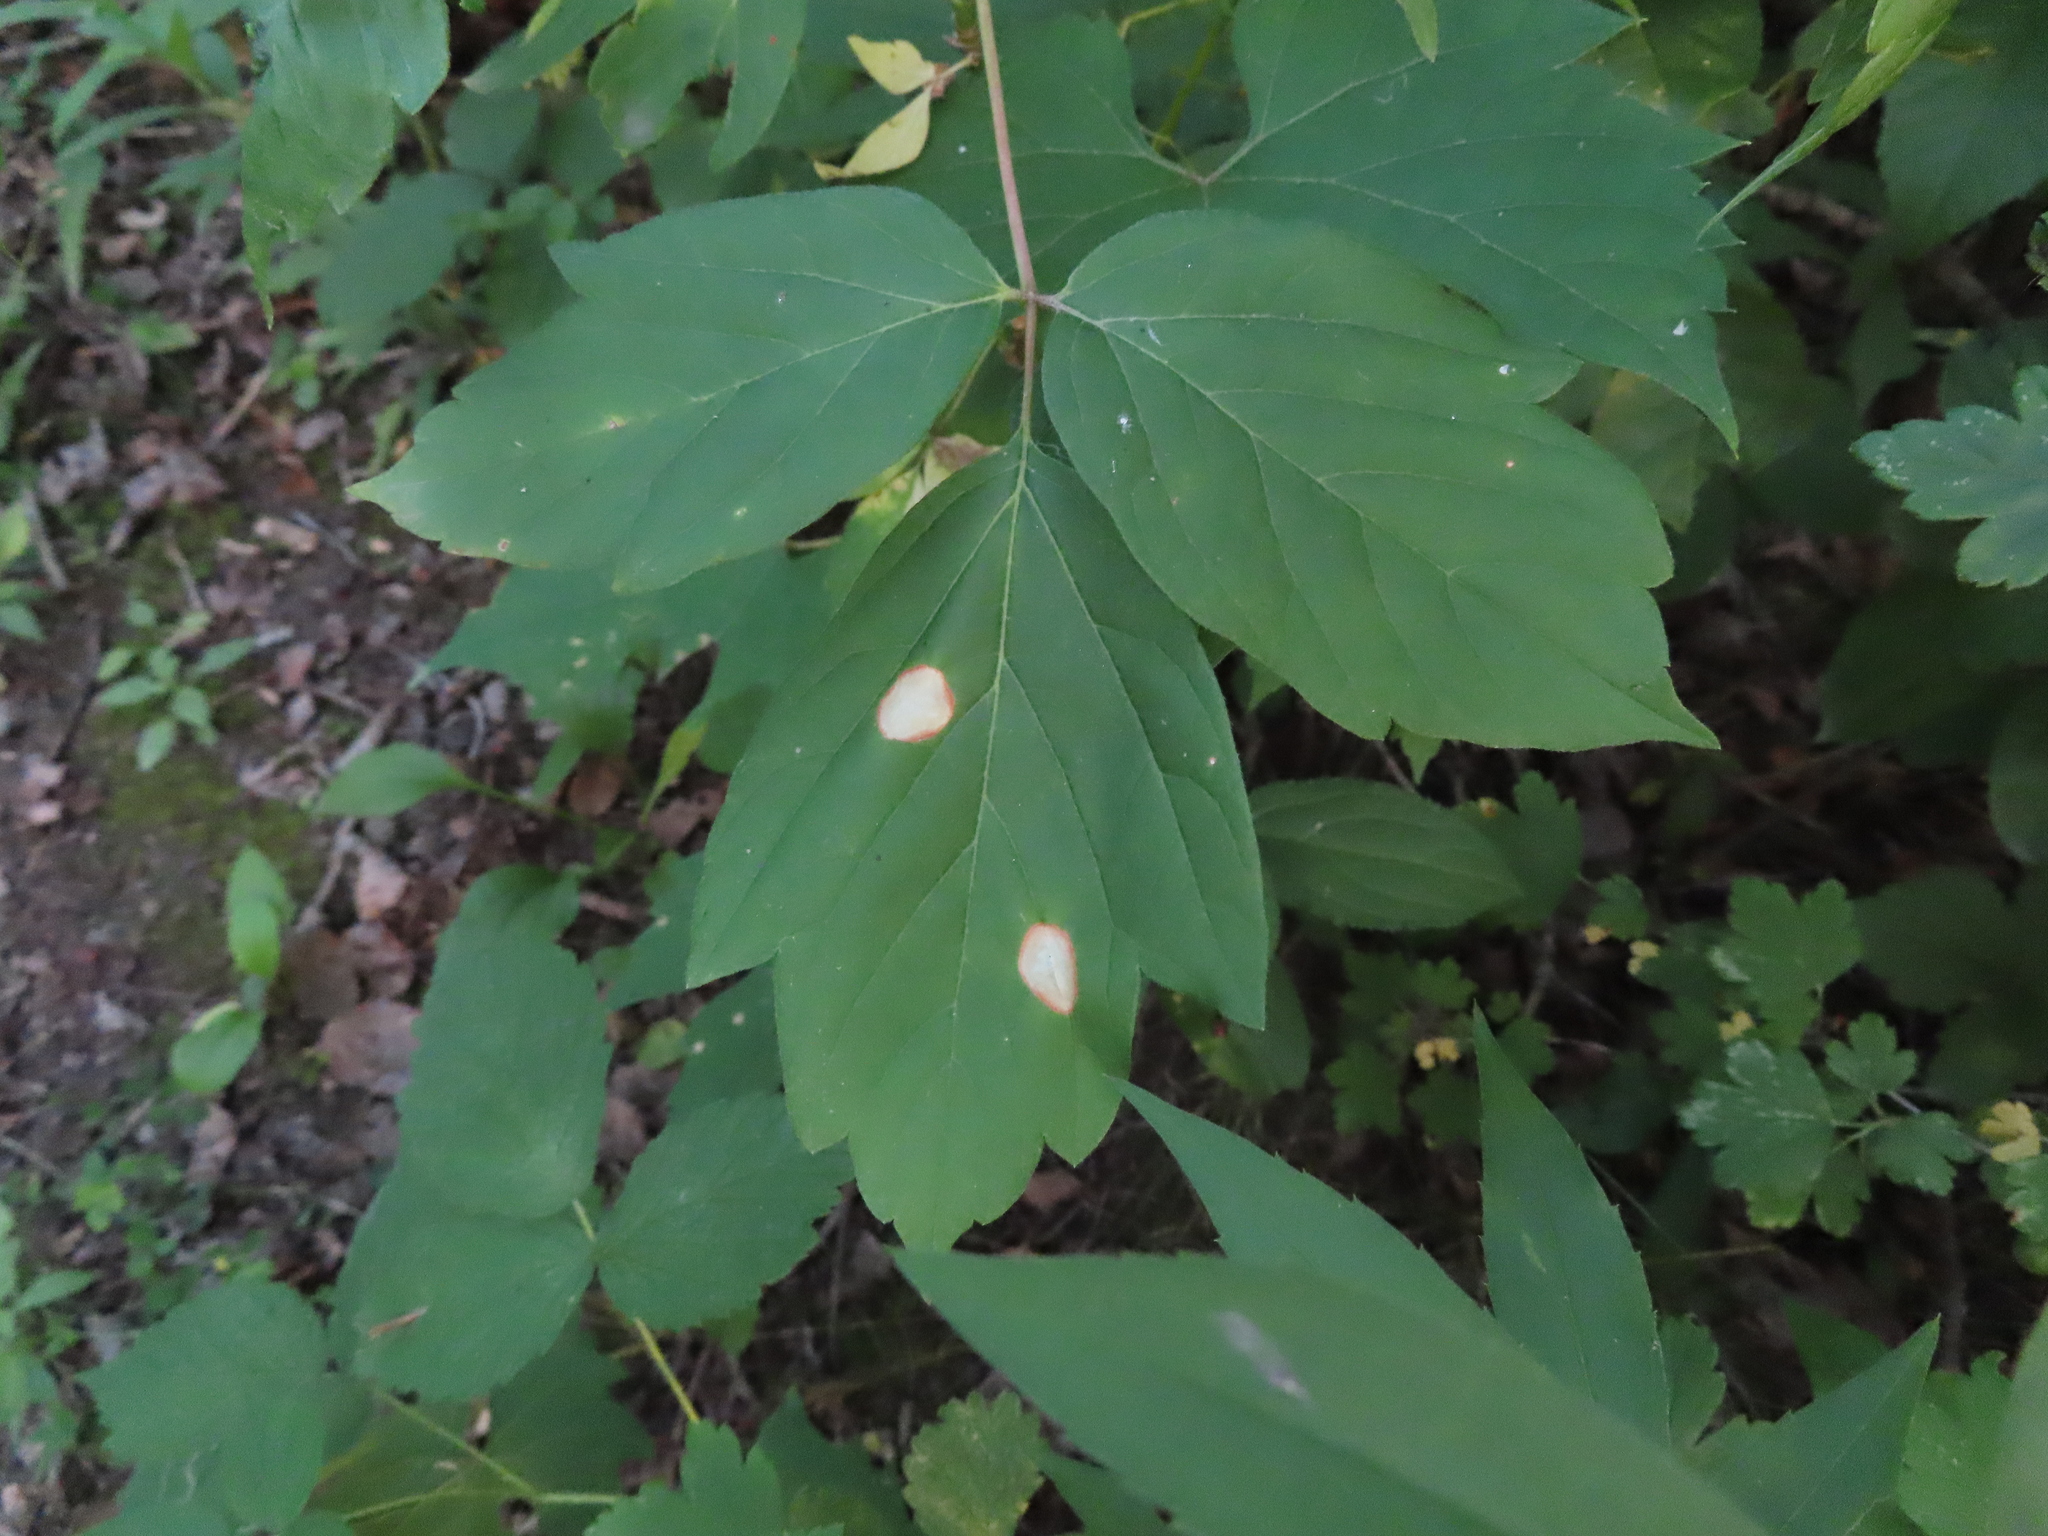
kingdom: Plantae
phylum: Tracheophyta
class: Magnoliopsida
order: Sapindales
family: Sapindaceae
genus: Acer
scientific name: Acer negundo
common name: Ashleaf maple
